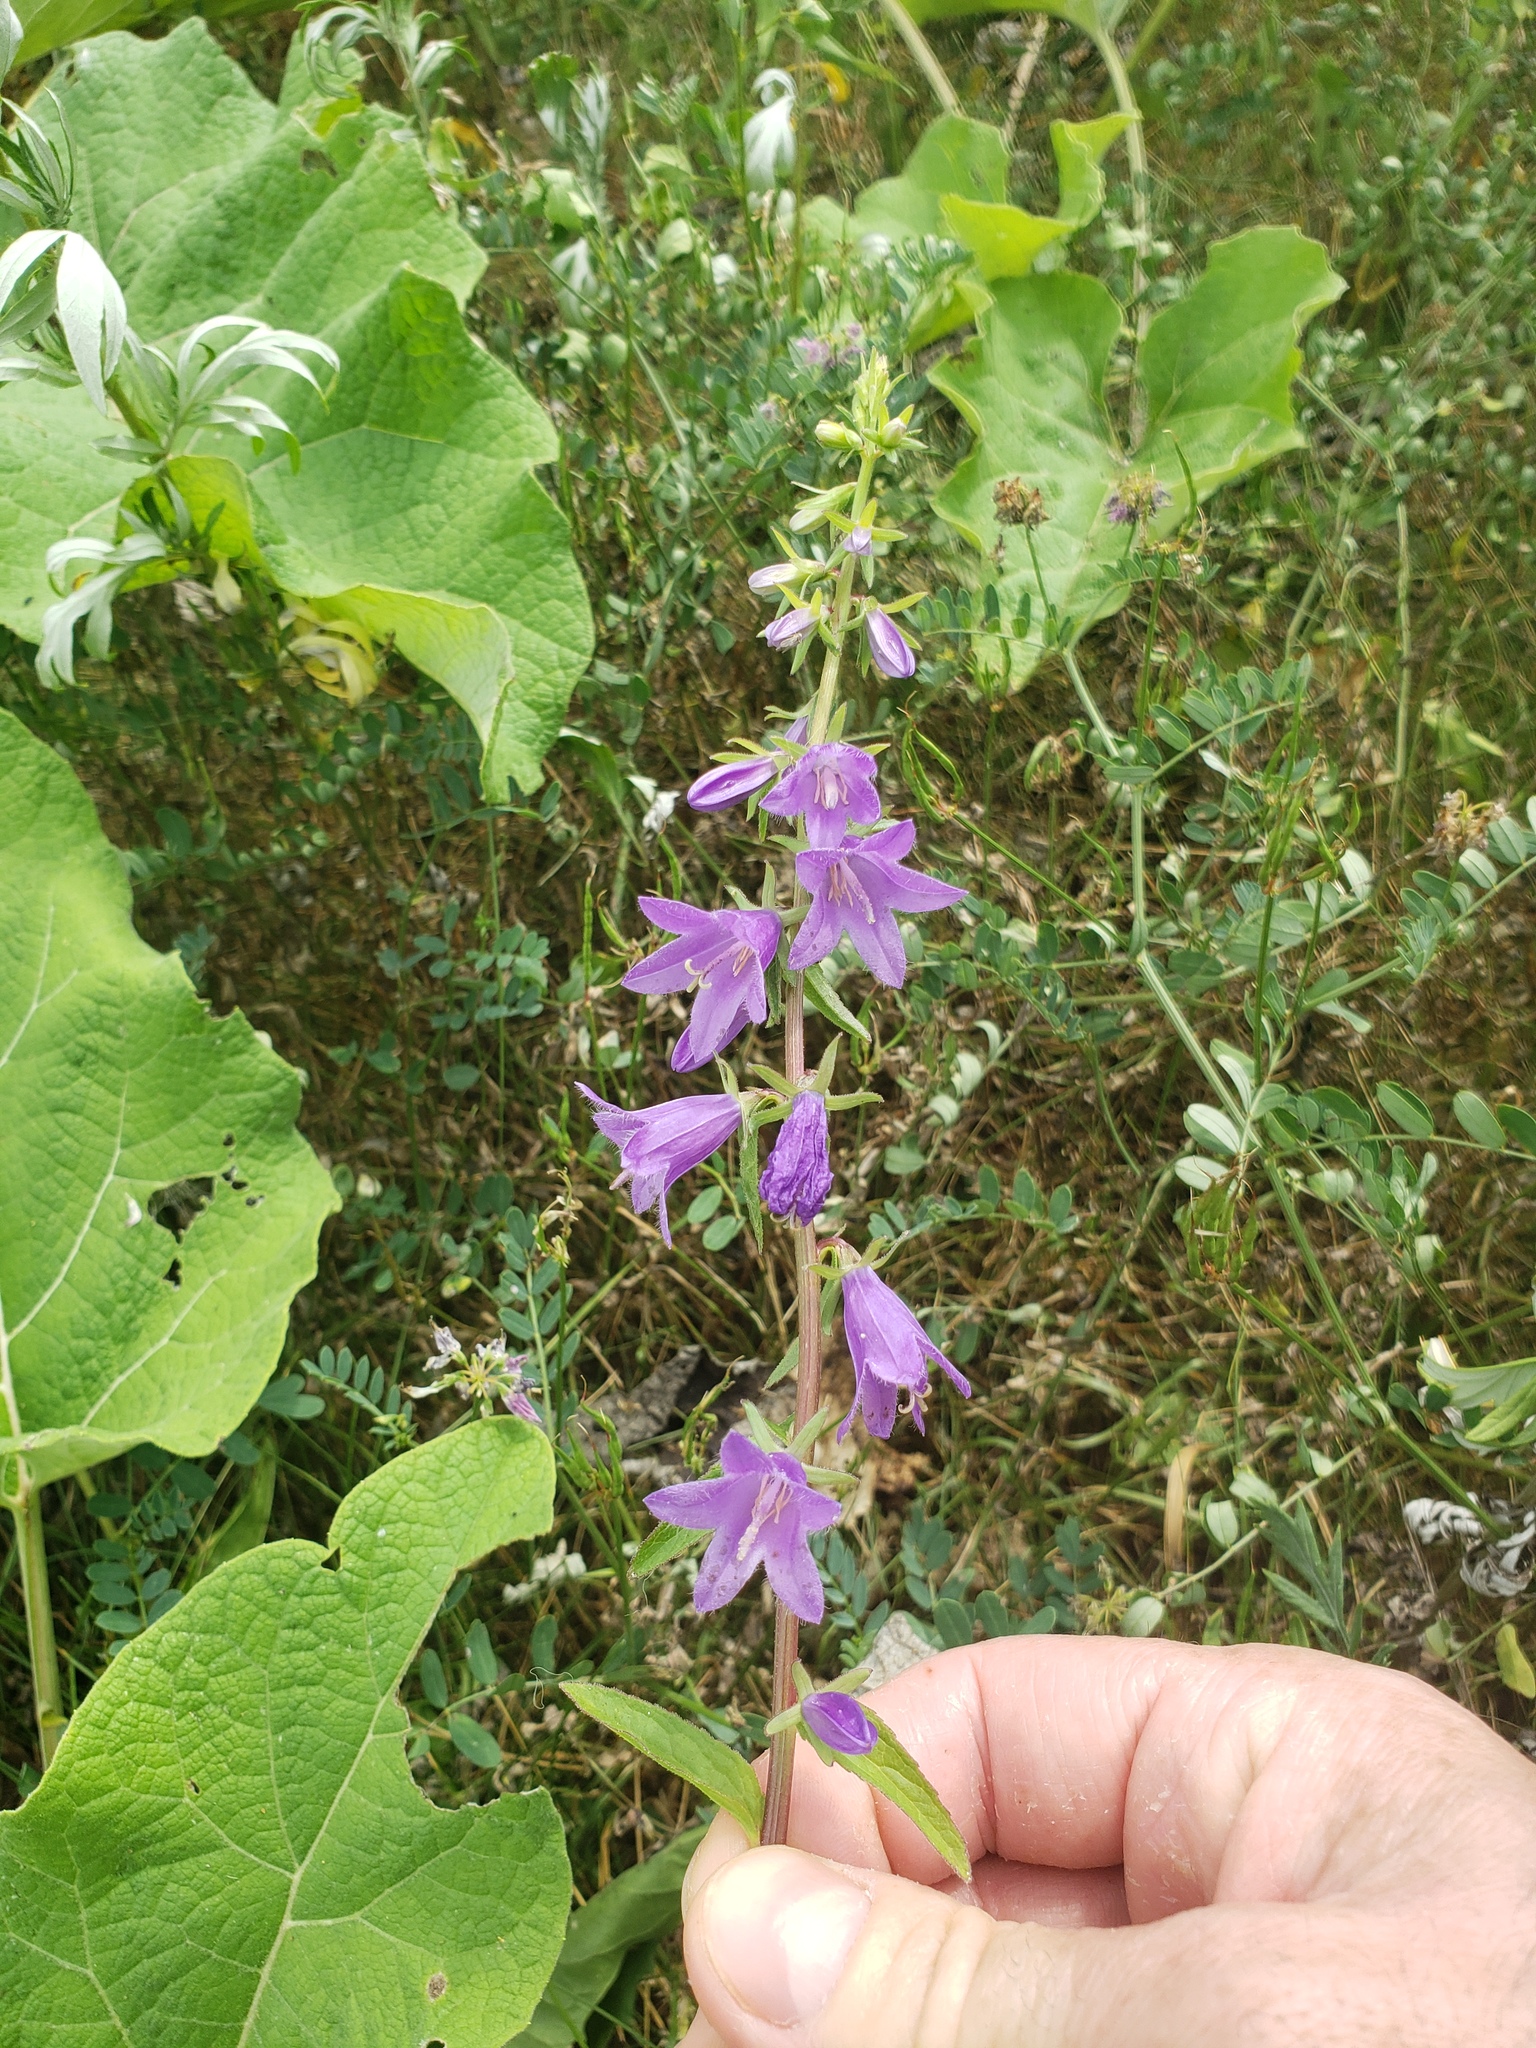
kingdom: Plantae
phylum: Tracheophyta
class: Magnoliopsida
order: Asterales
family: Campanulaceae
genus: Campanula
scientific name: Campanula rapunculoides
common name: Creeping bellflower
